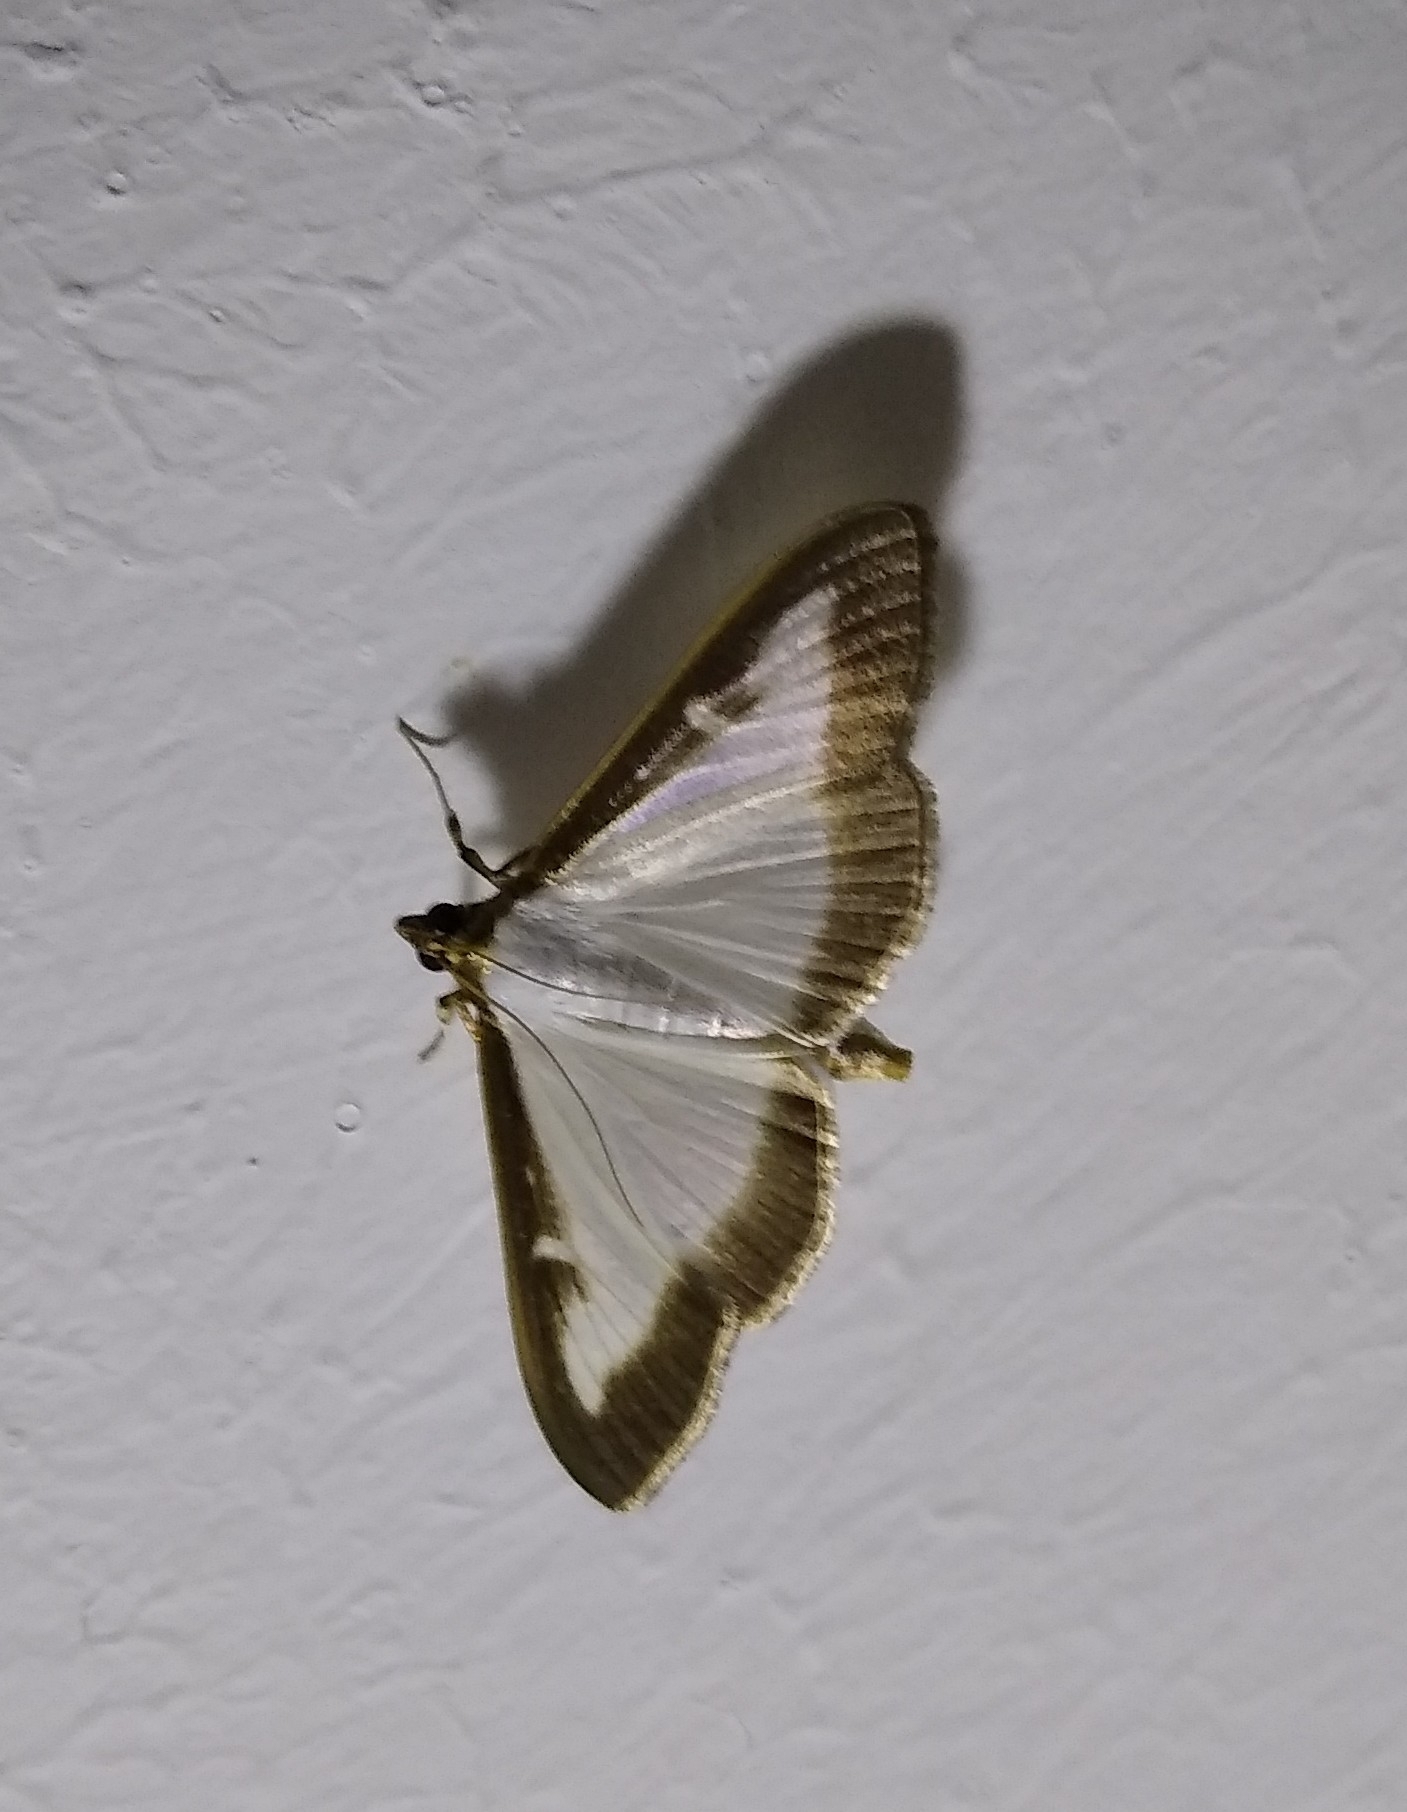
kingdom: Animalia
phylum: Arthropoda
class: Insecta
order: Lepidoptera
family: Crambidae
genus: Cydalima
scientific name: Cydalima perspectalis
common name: Box tree moth
